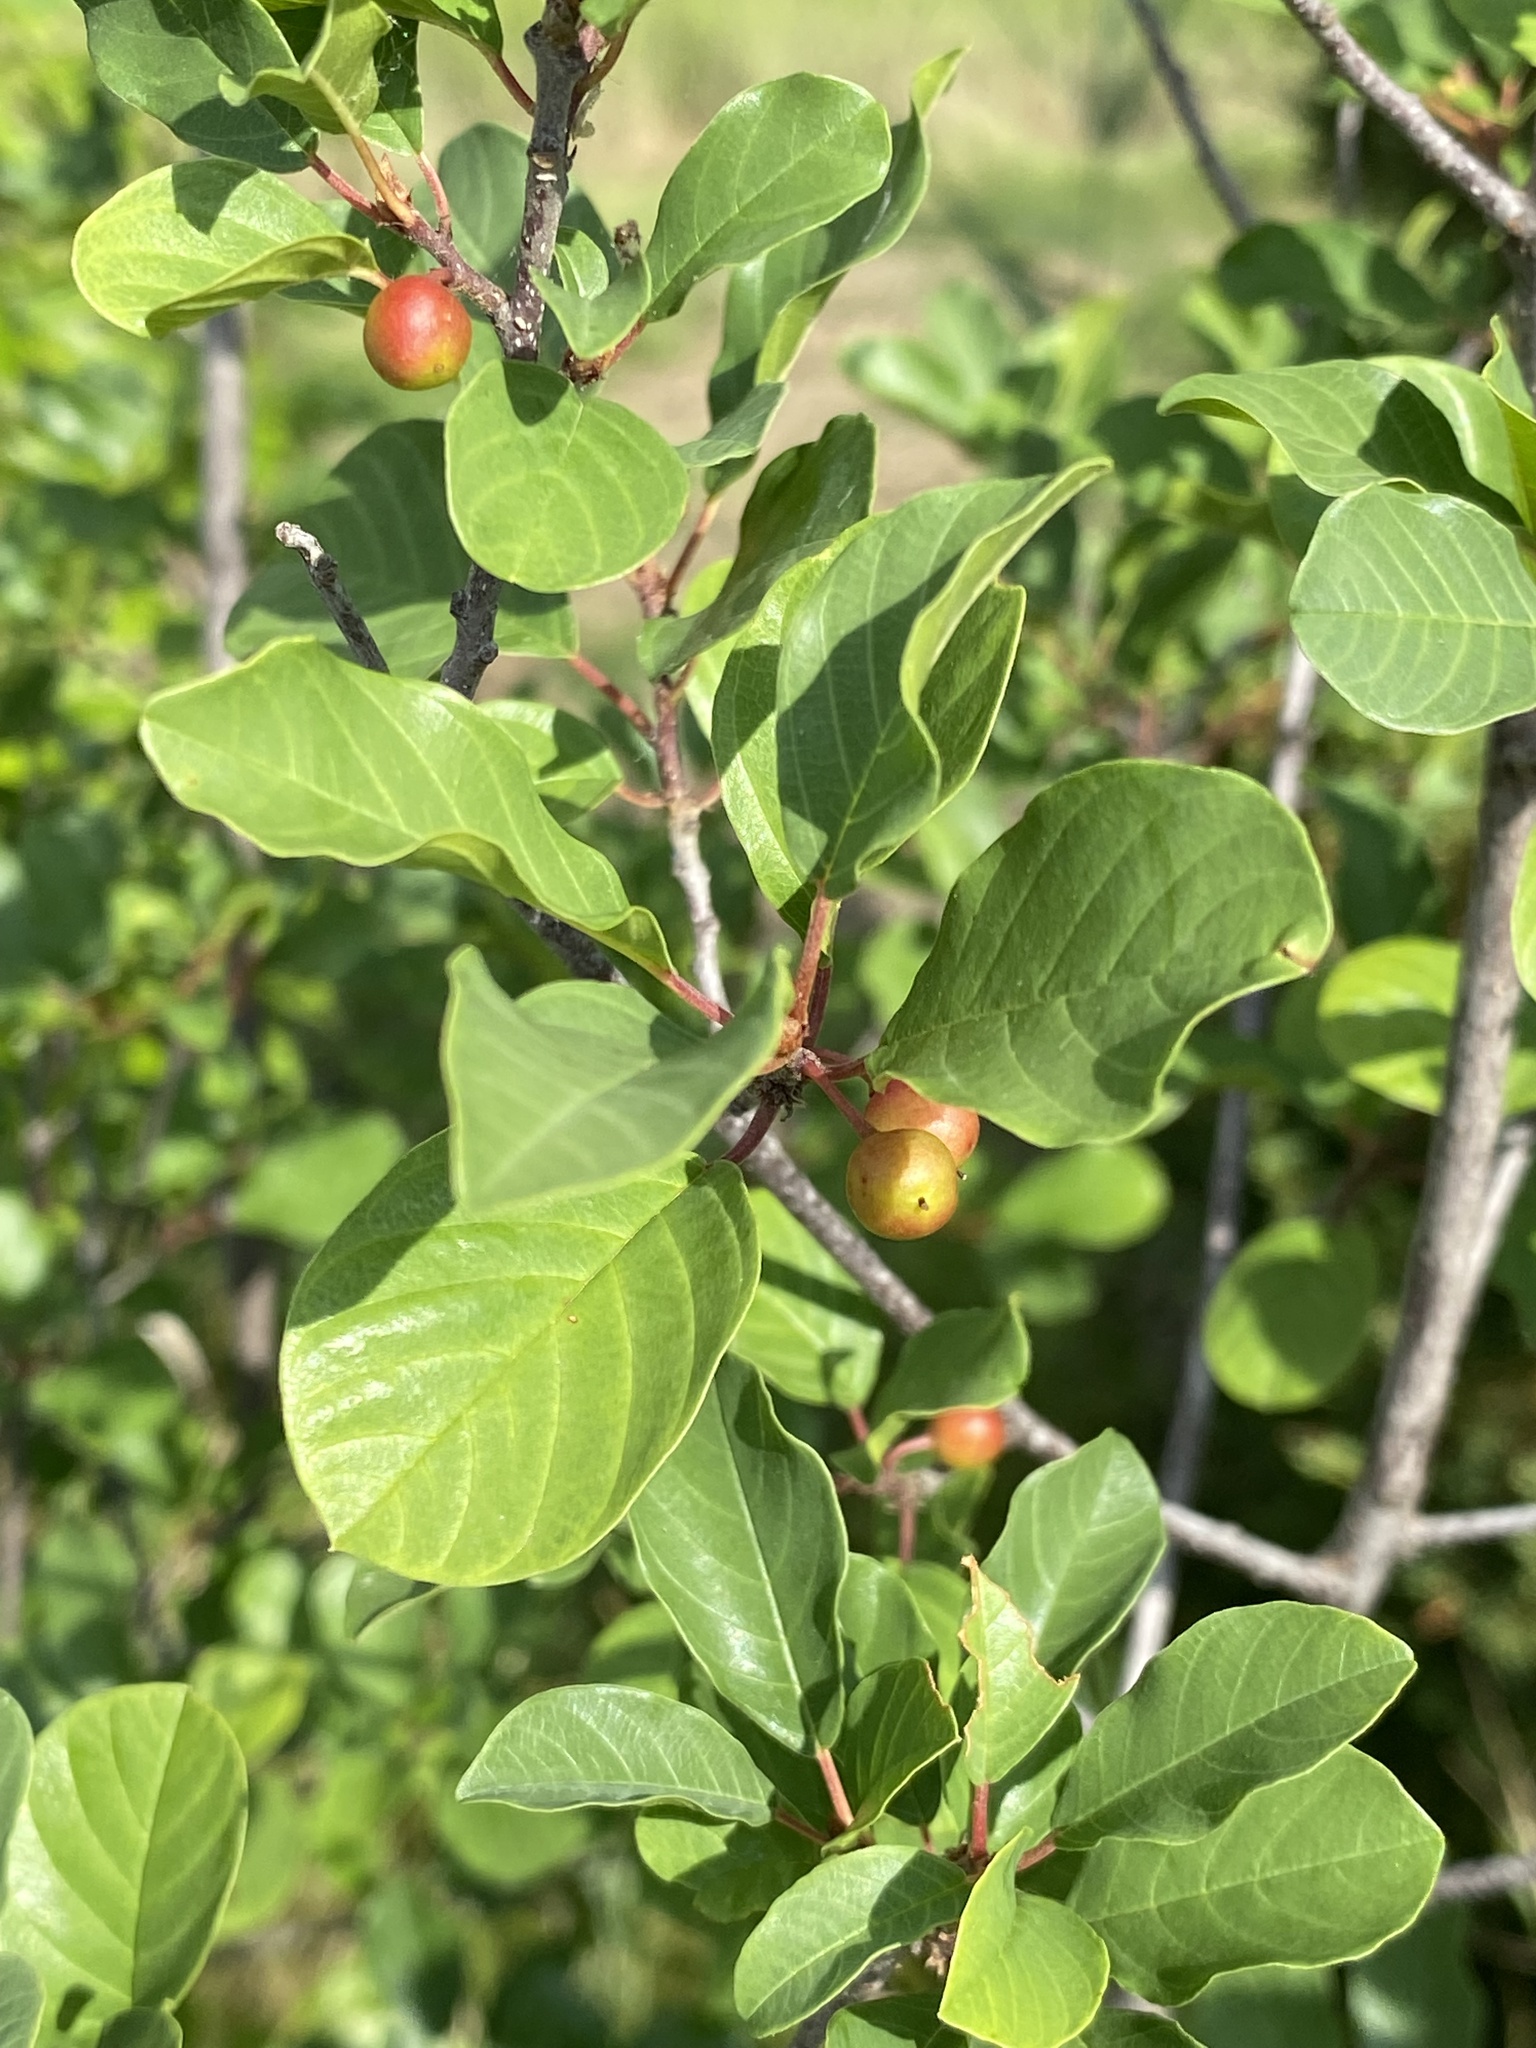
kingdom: Plantae
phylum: Tracheophyta
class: Magnoliopsida
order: Rosales
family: Rhamnaceae
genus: Frangula
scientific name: Frangula alnus
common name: Alder buckthorn
